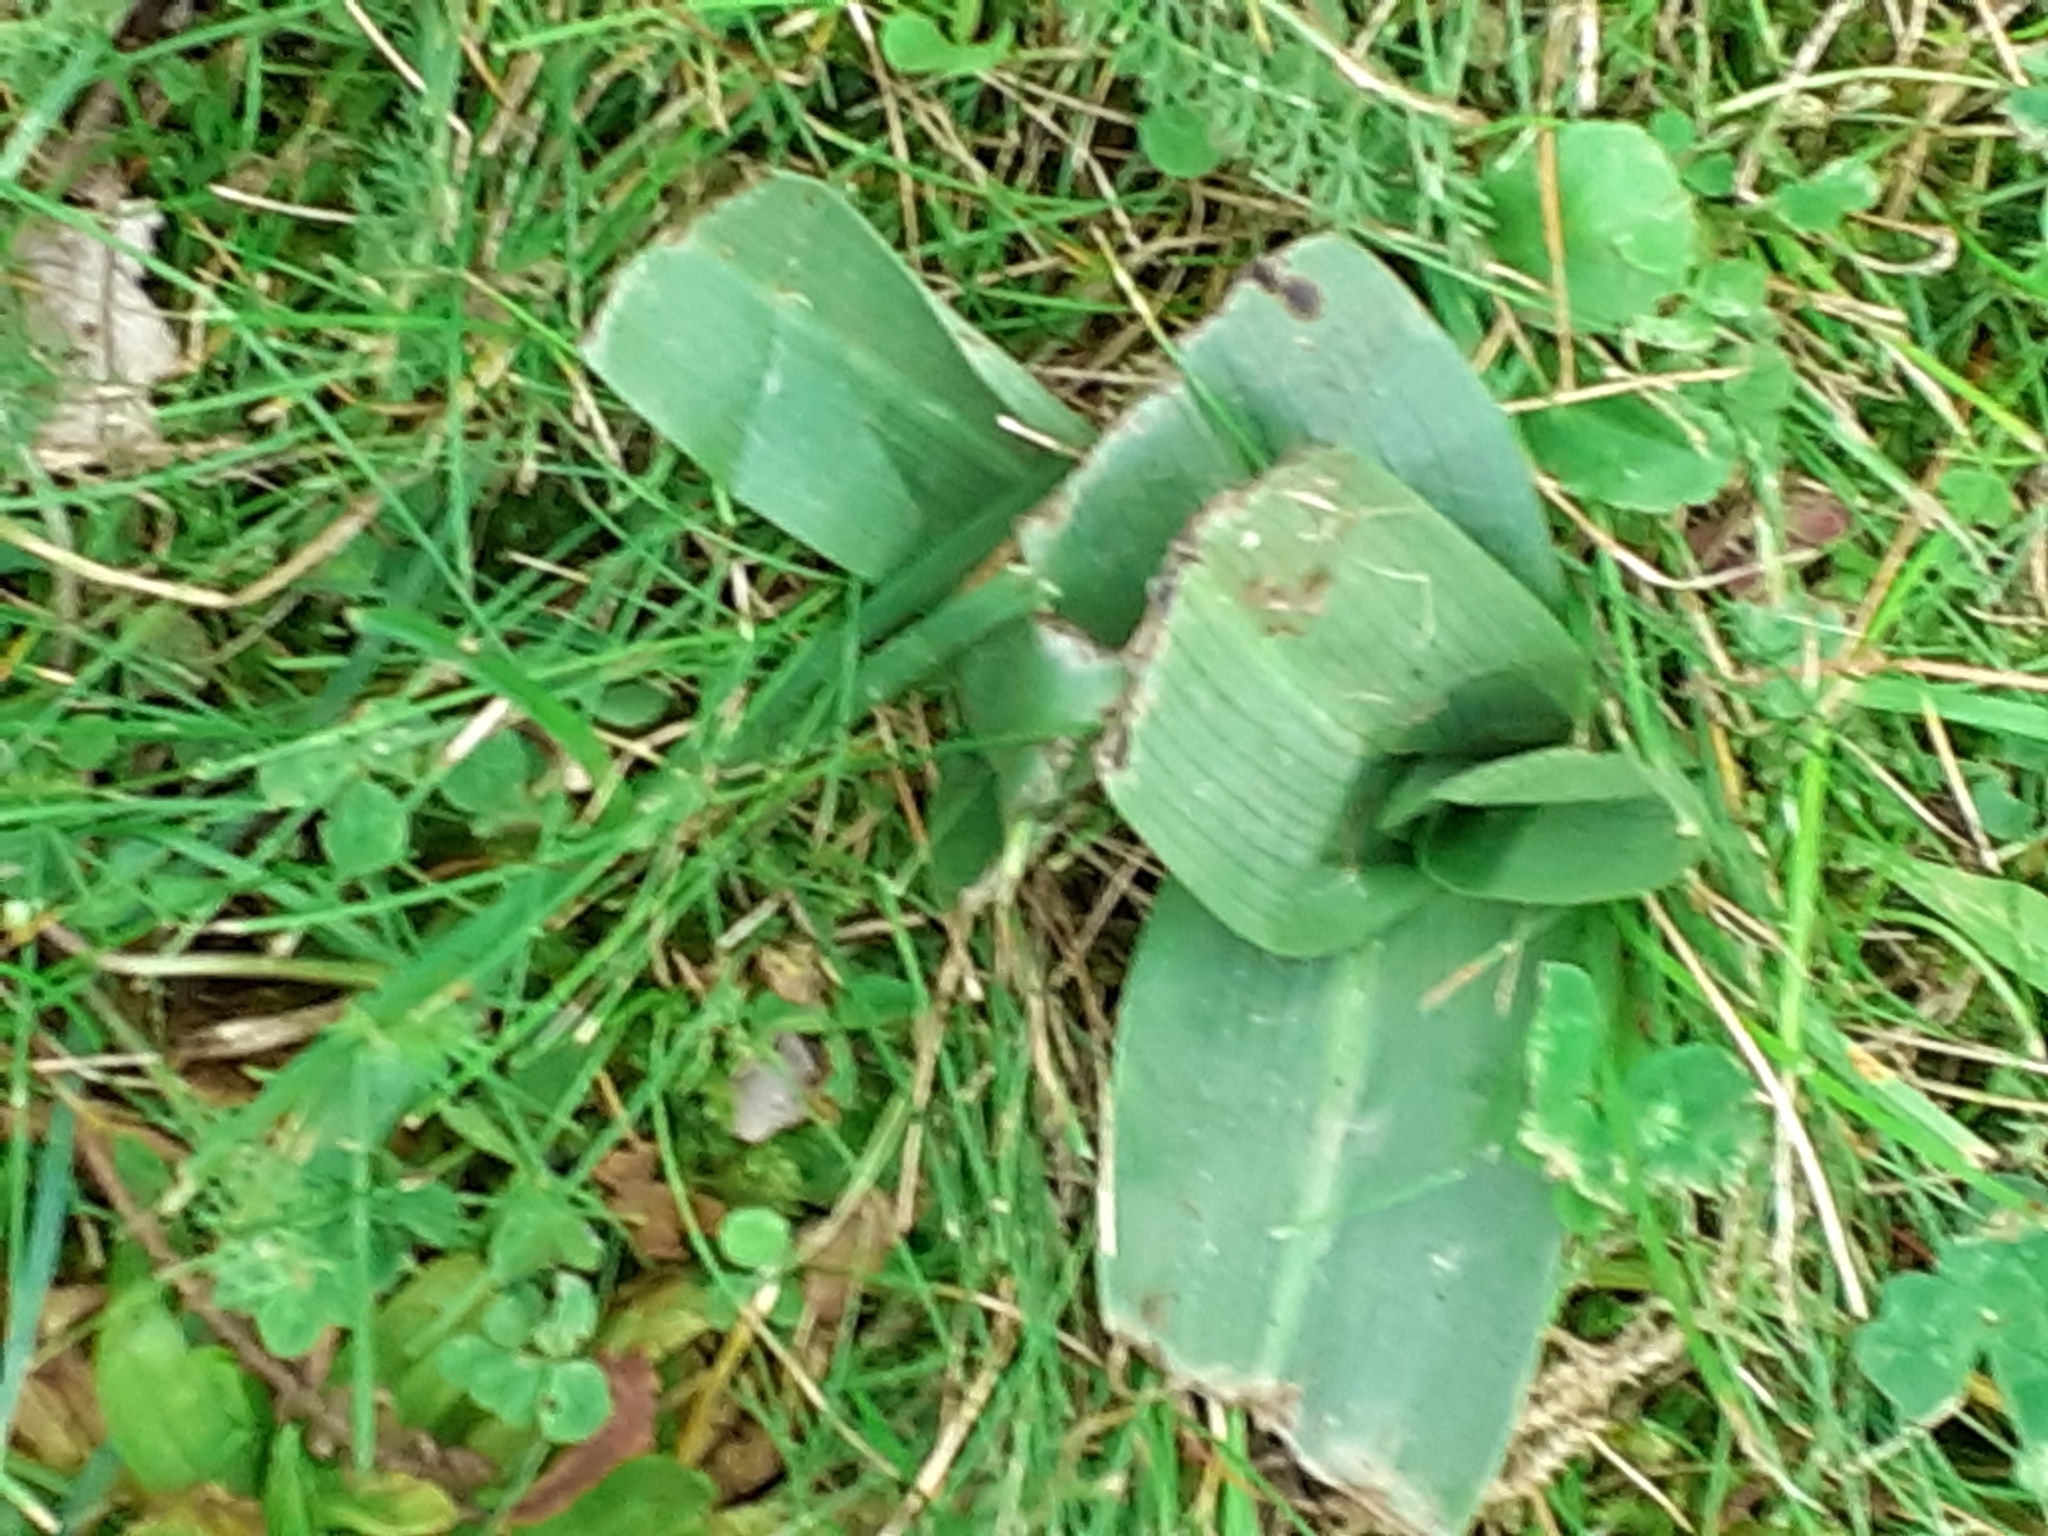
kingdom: Plantae
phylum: Tracheophyta
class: Liliopsida
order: Asparagales
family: Orchidaceae
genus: Ophrys
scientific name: Ophrys apifera
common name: Bee orchid
